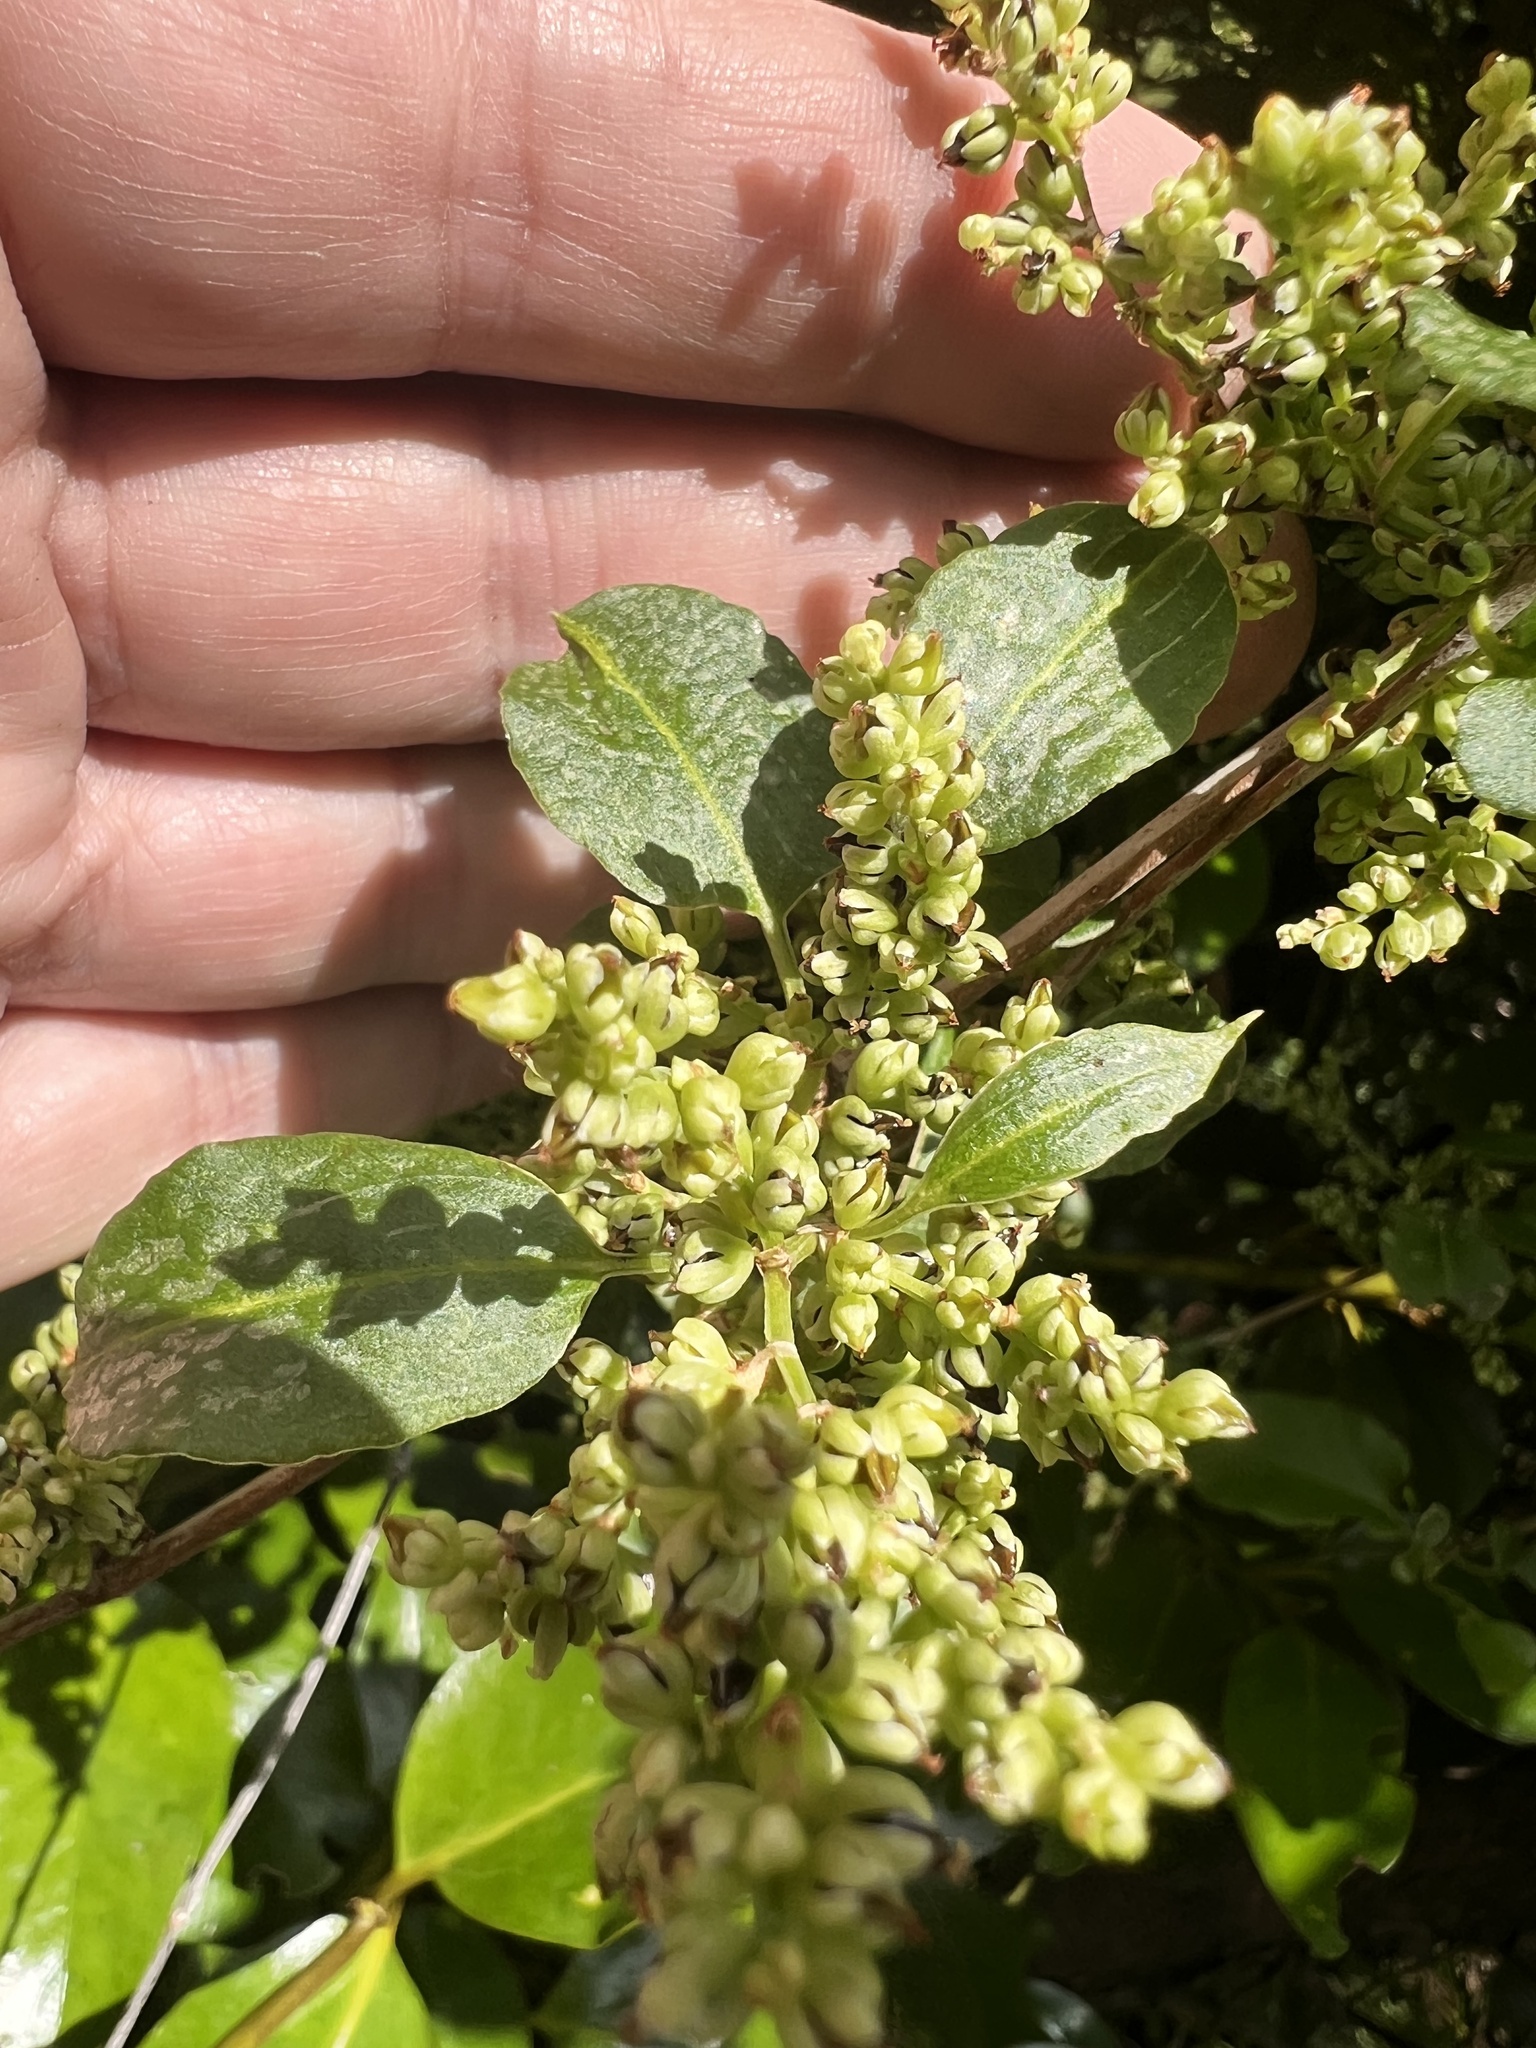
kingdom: Plantae
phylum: Tracheophyta
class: Magnoliopsida
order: Caryophyllales
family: Polygonaceae
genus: Muehlenbeckia
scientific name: Muehlenbeckia australis
